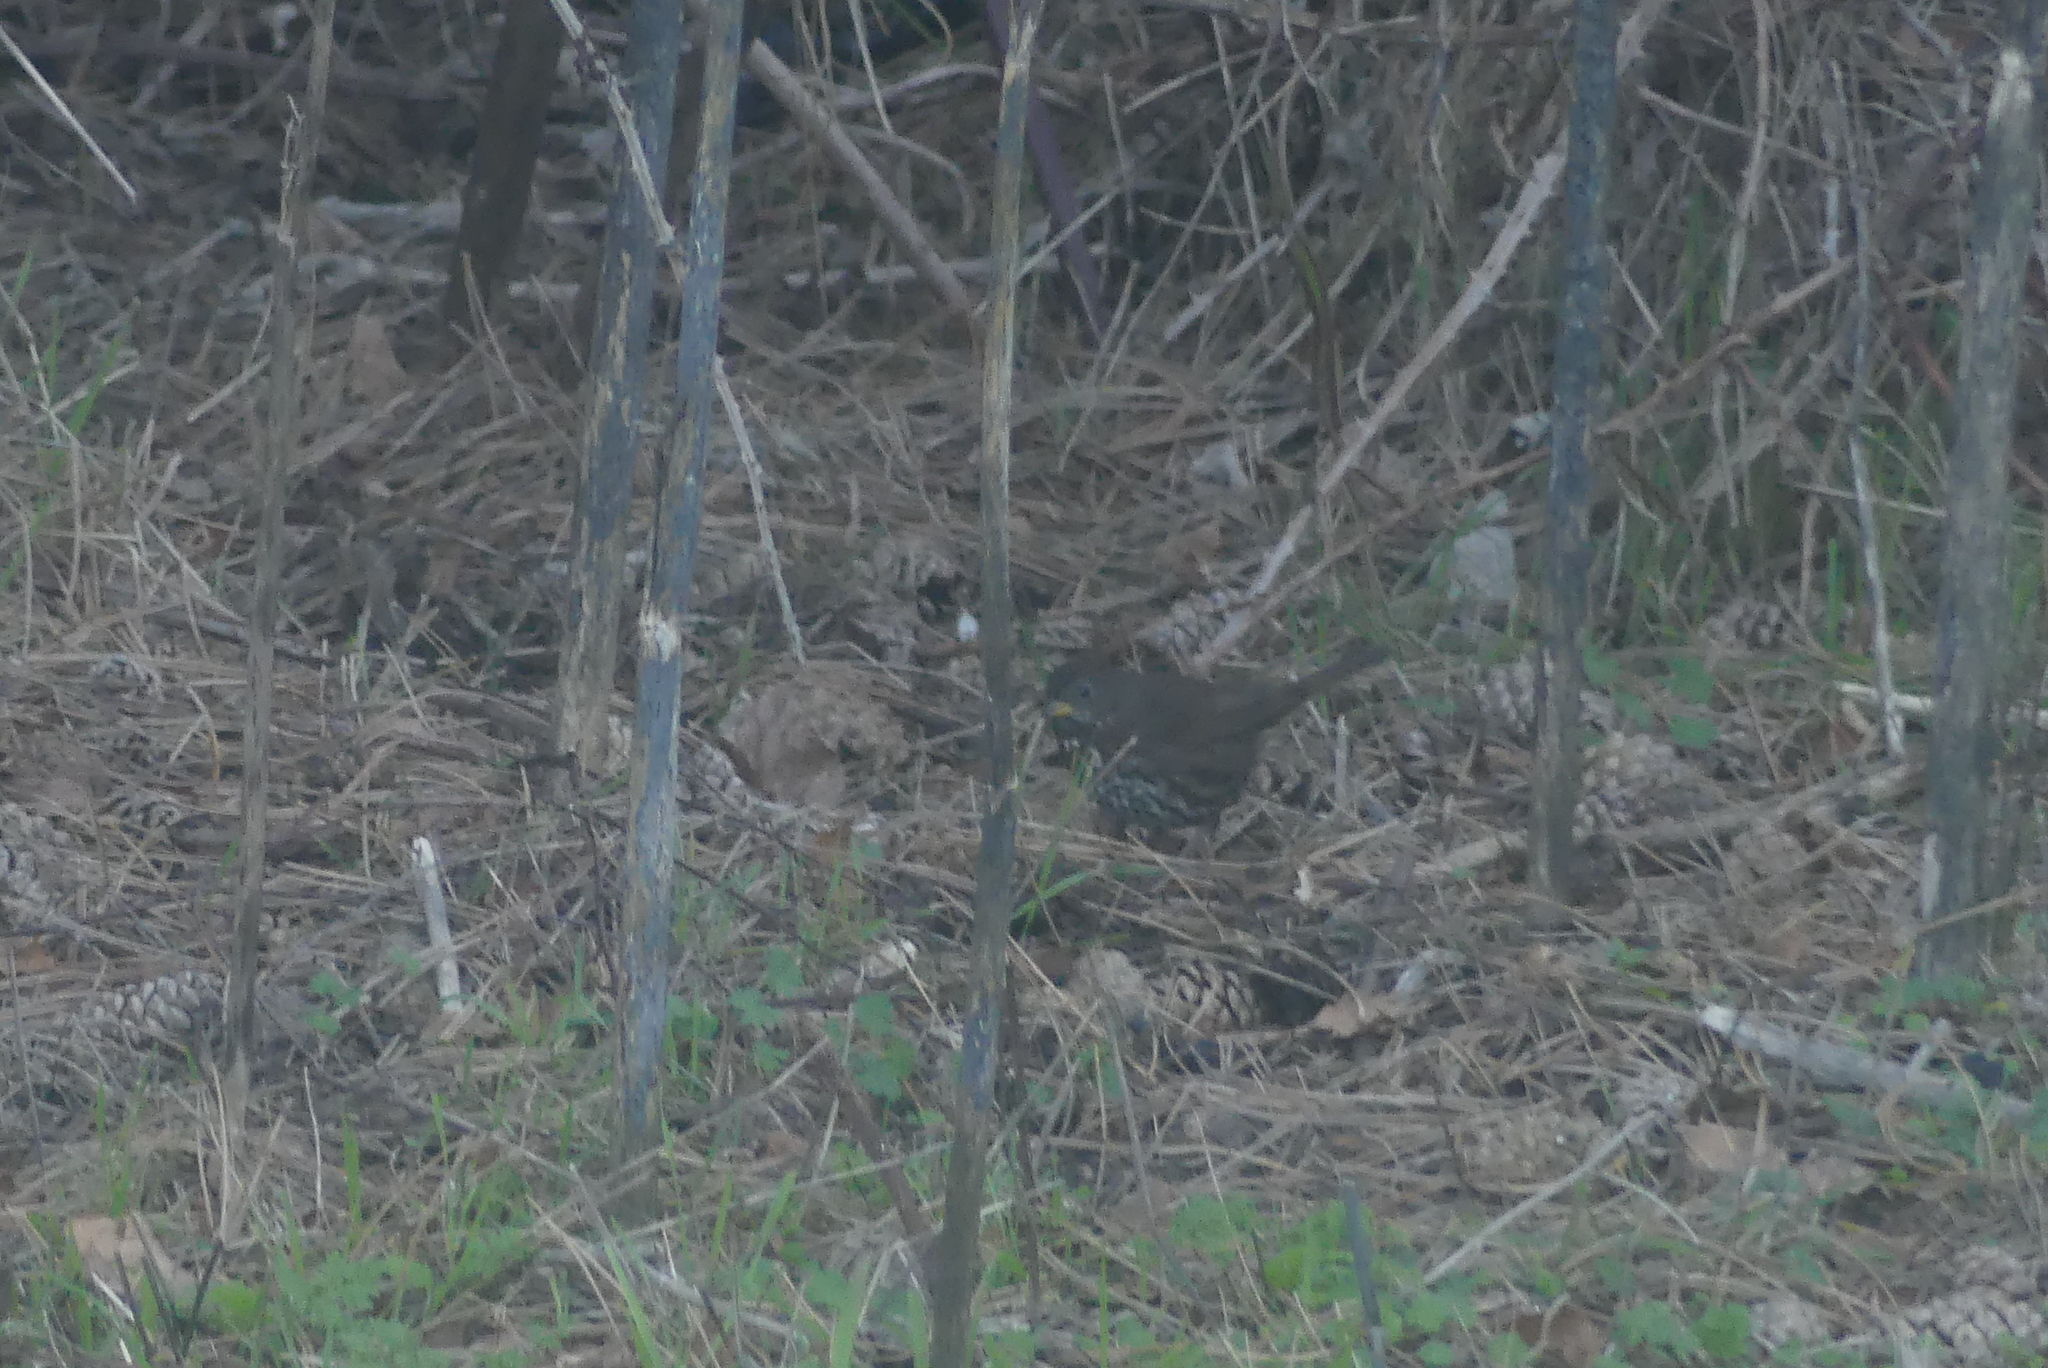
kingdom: Animalia
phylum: Chordata
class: Aves
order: Passeriformes
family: Passerellidae
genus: Passerella
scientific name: Passerella iliaca
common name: Fox sparrow
